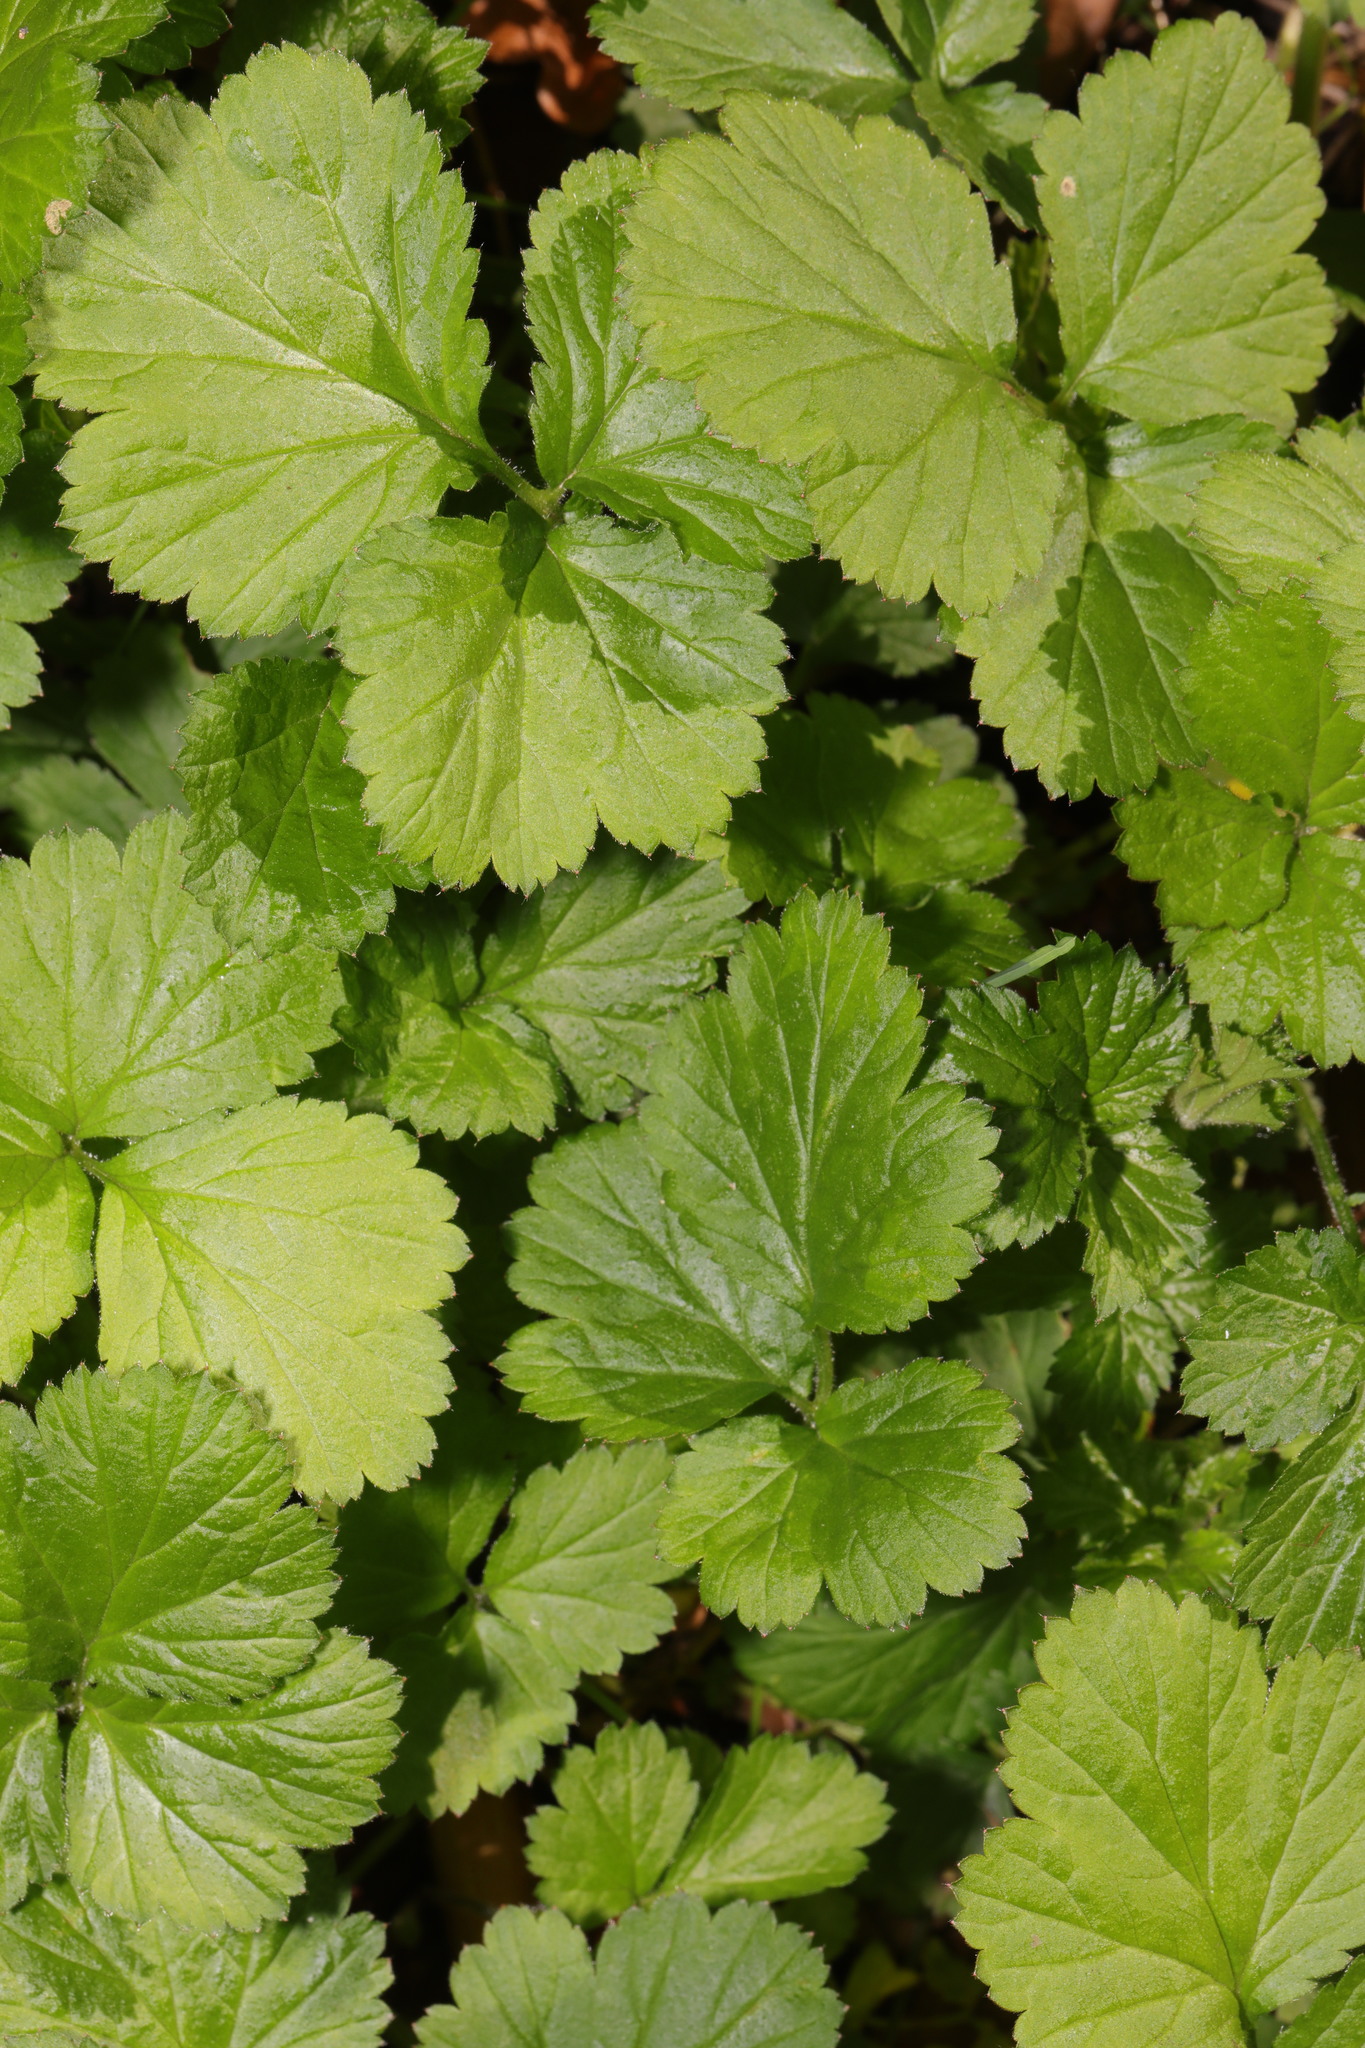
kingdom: Plantae
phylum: Tracheophyta
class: Magnoliopsida
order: Rosales
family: Rosaceae
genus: Geum
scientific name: Geum urbanum
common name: Wood avens
